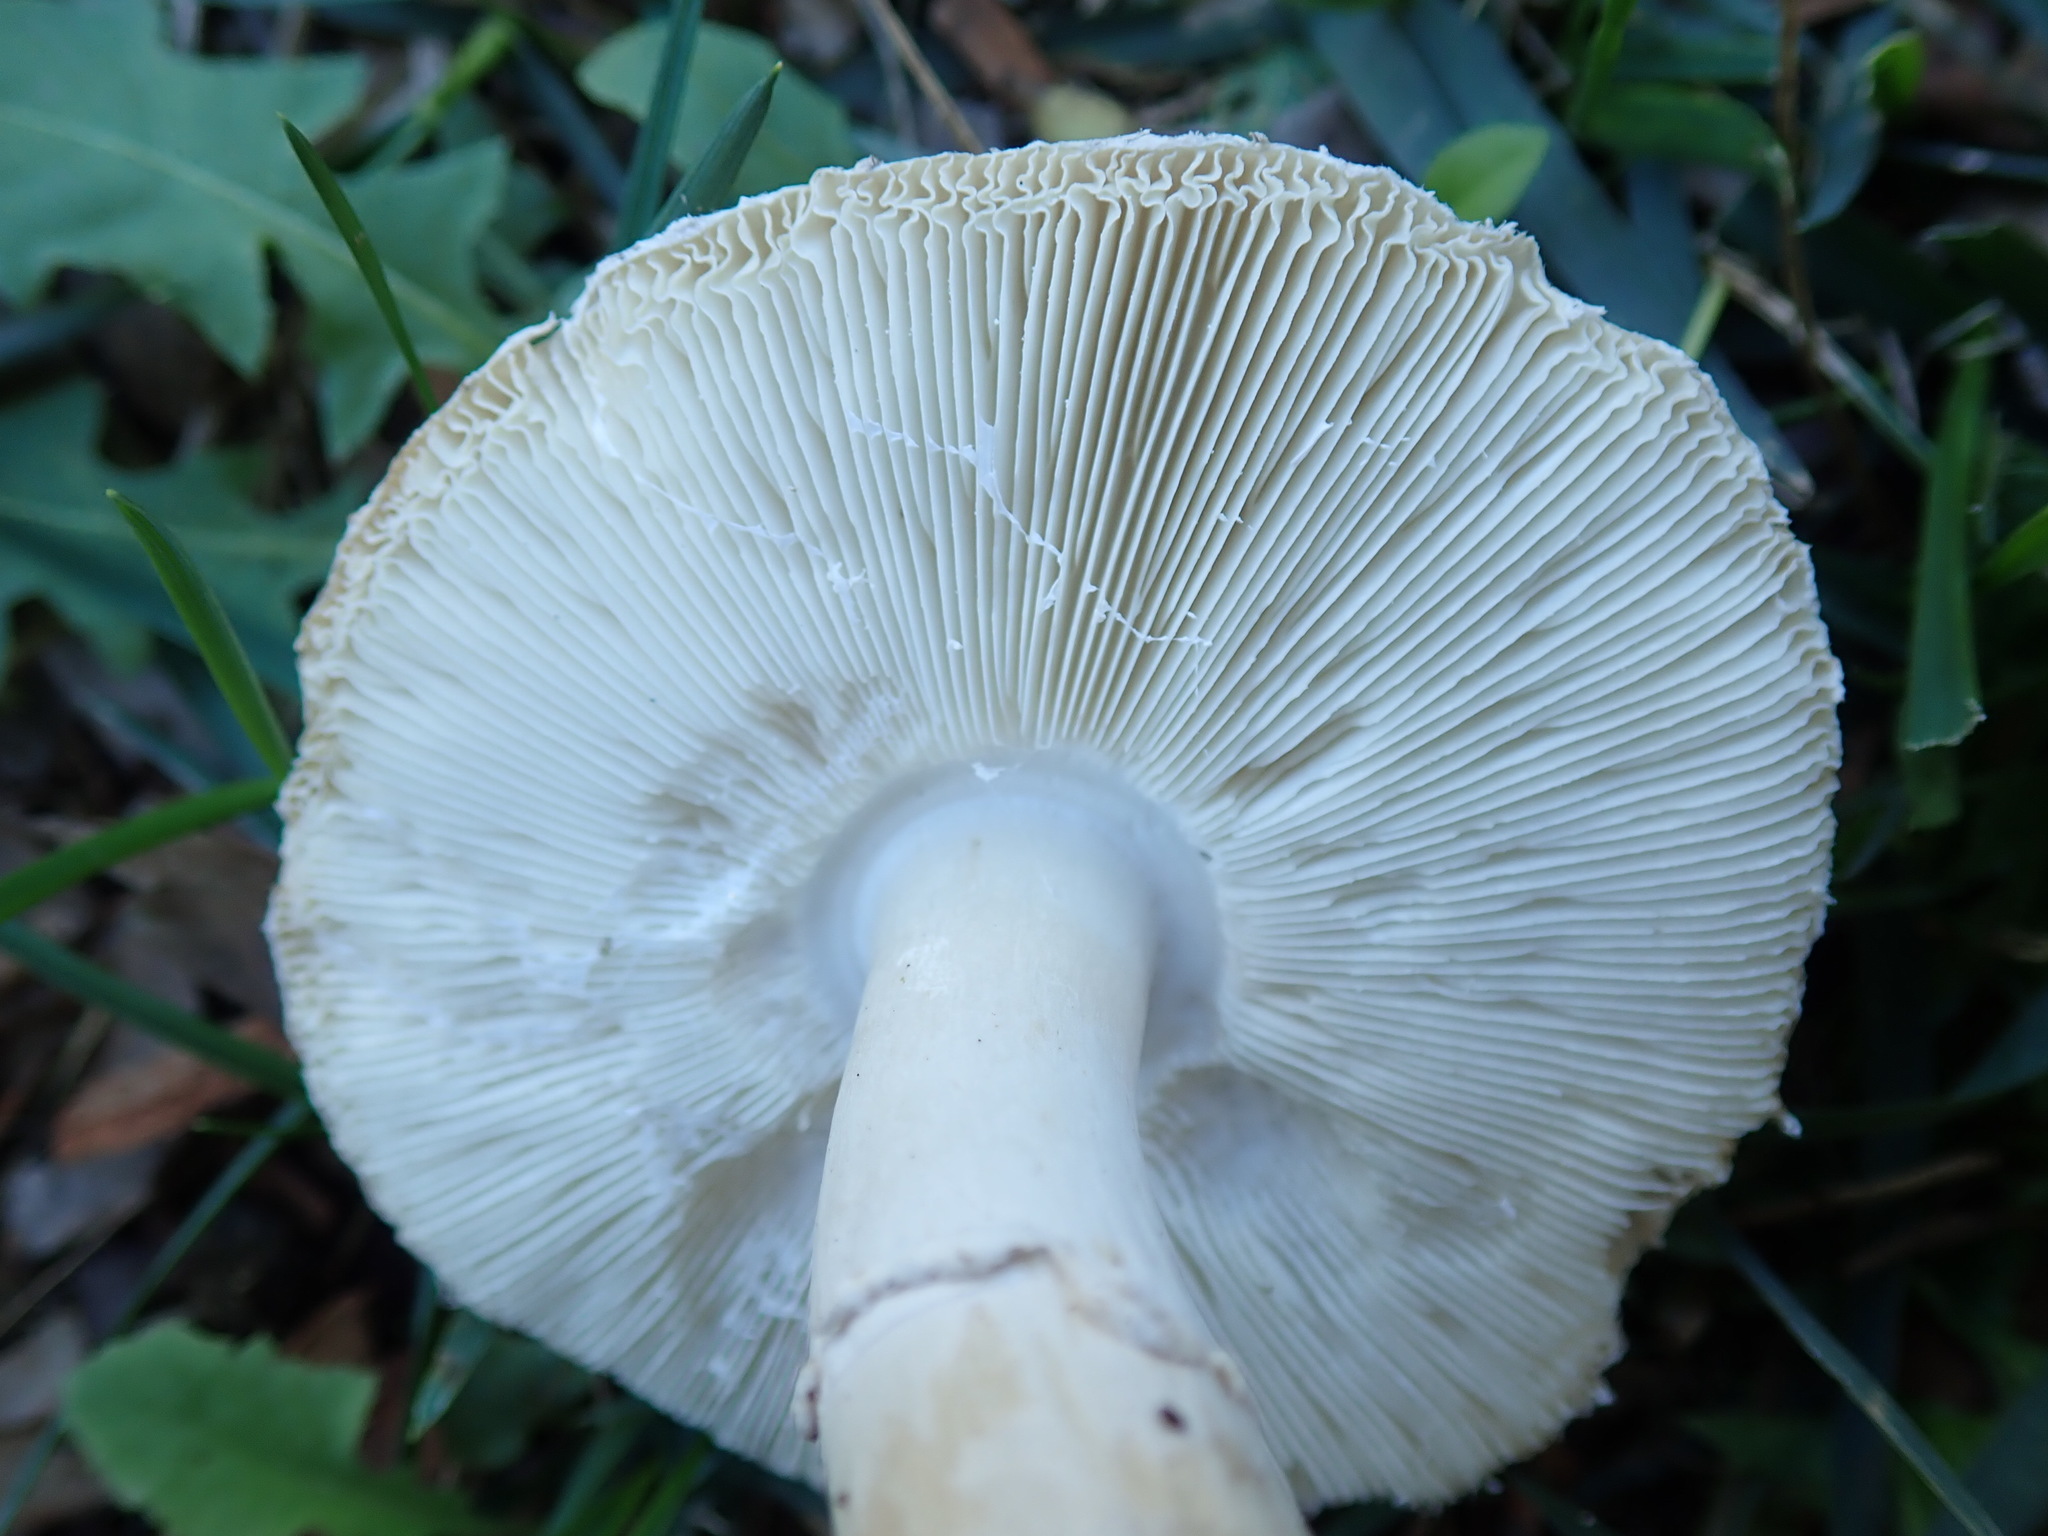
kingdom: Fungi
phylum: Basidiomycota
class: Agaricomycetes
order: Agaricales
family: Agaricaceae
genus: Leucoagaricus
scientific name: Leucoagaricus barssii
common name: Smoky dapperling
